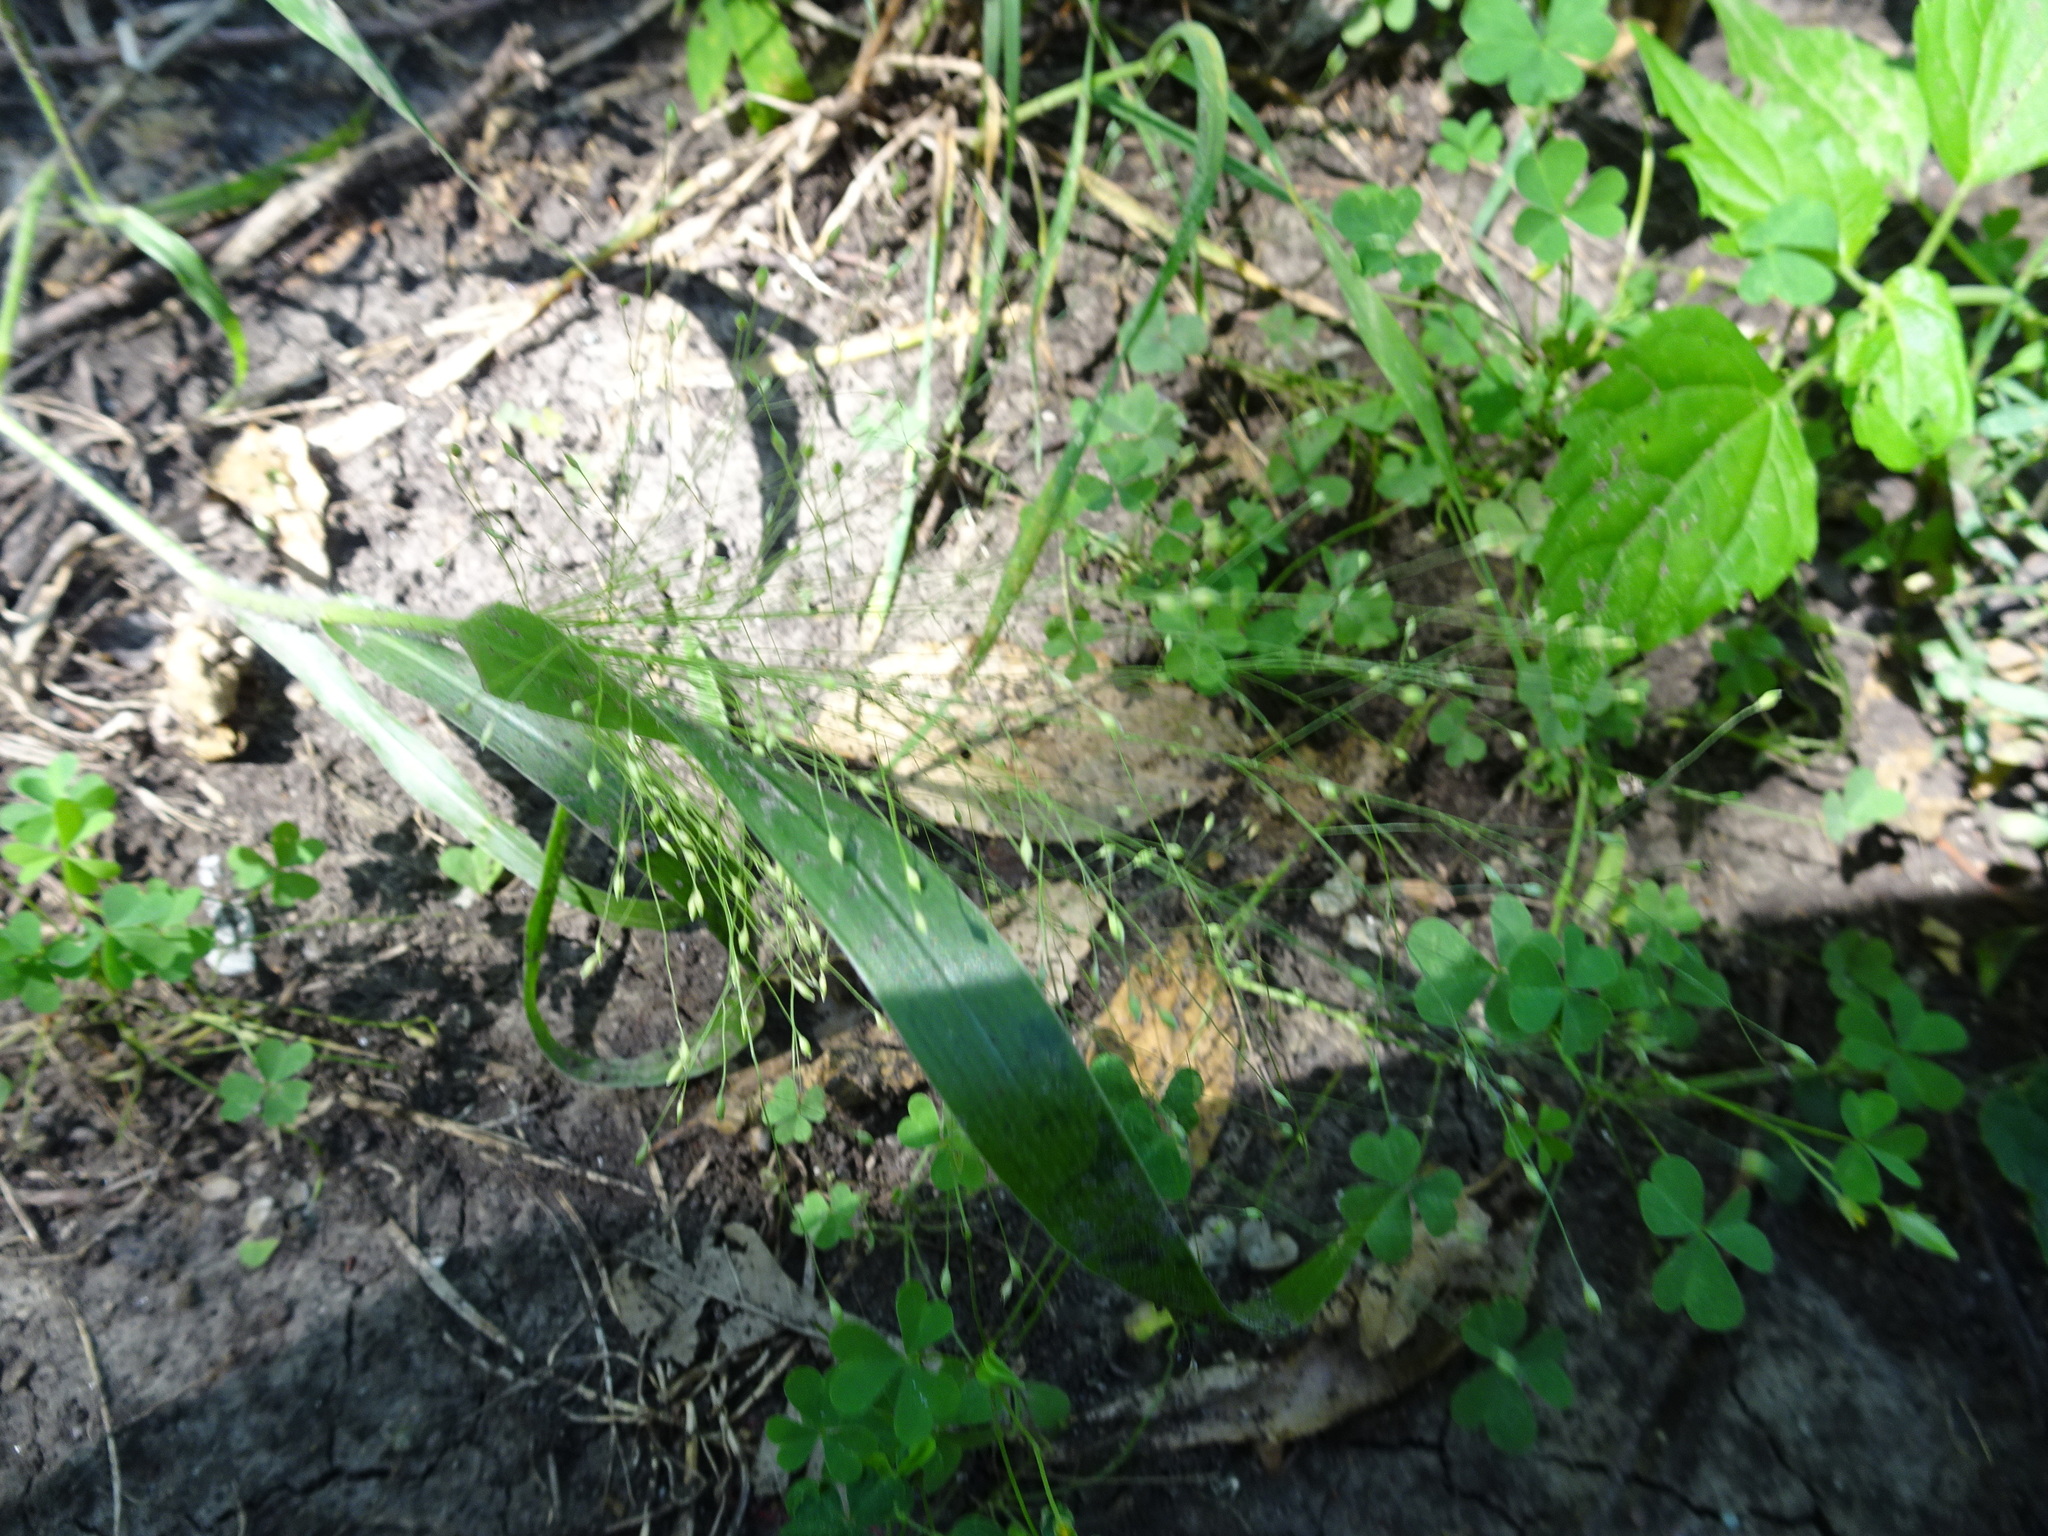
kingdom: Plantae
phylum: Tracheophyta
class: Liliopsida
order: Poales
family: Poaceae
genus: Panicum
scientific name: Panicum capillare
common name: Witch-grass
